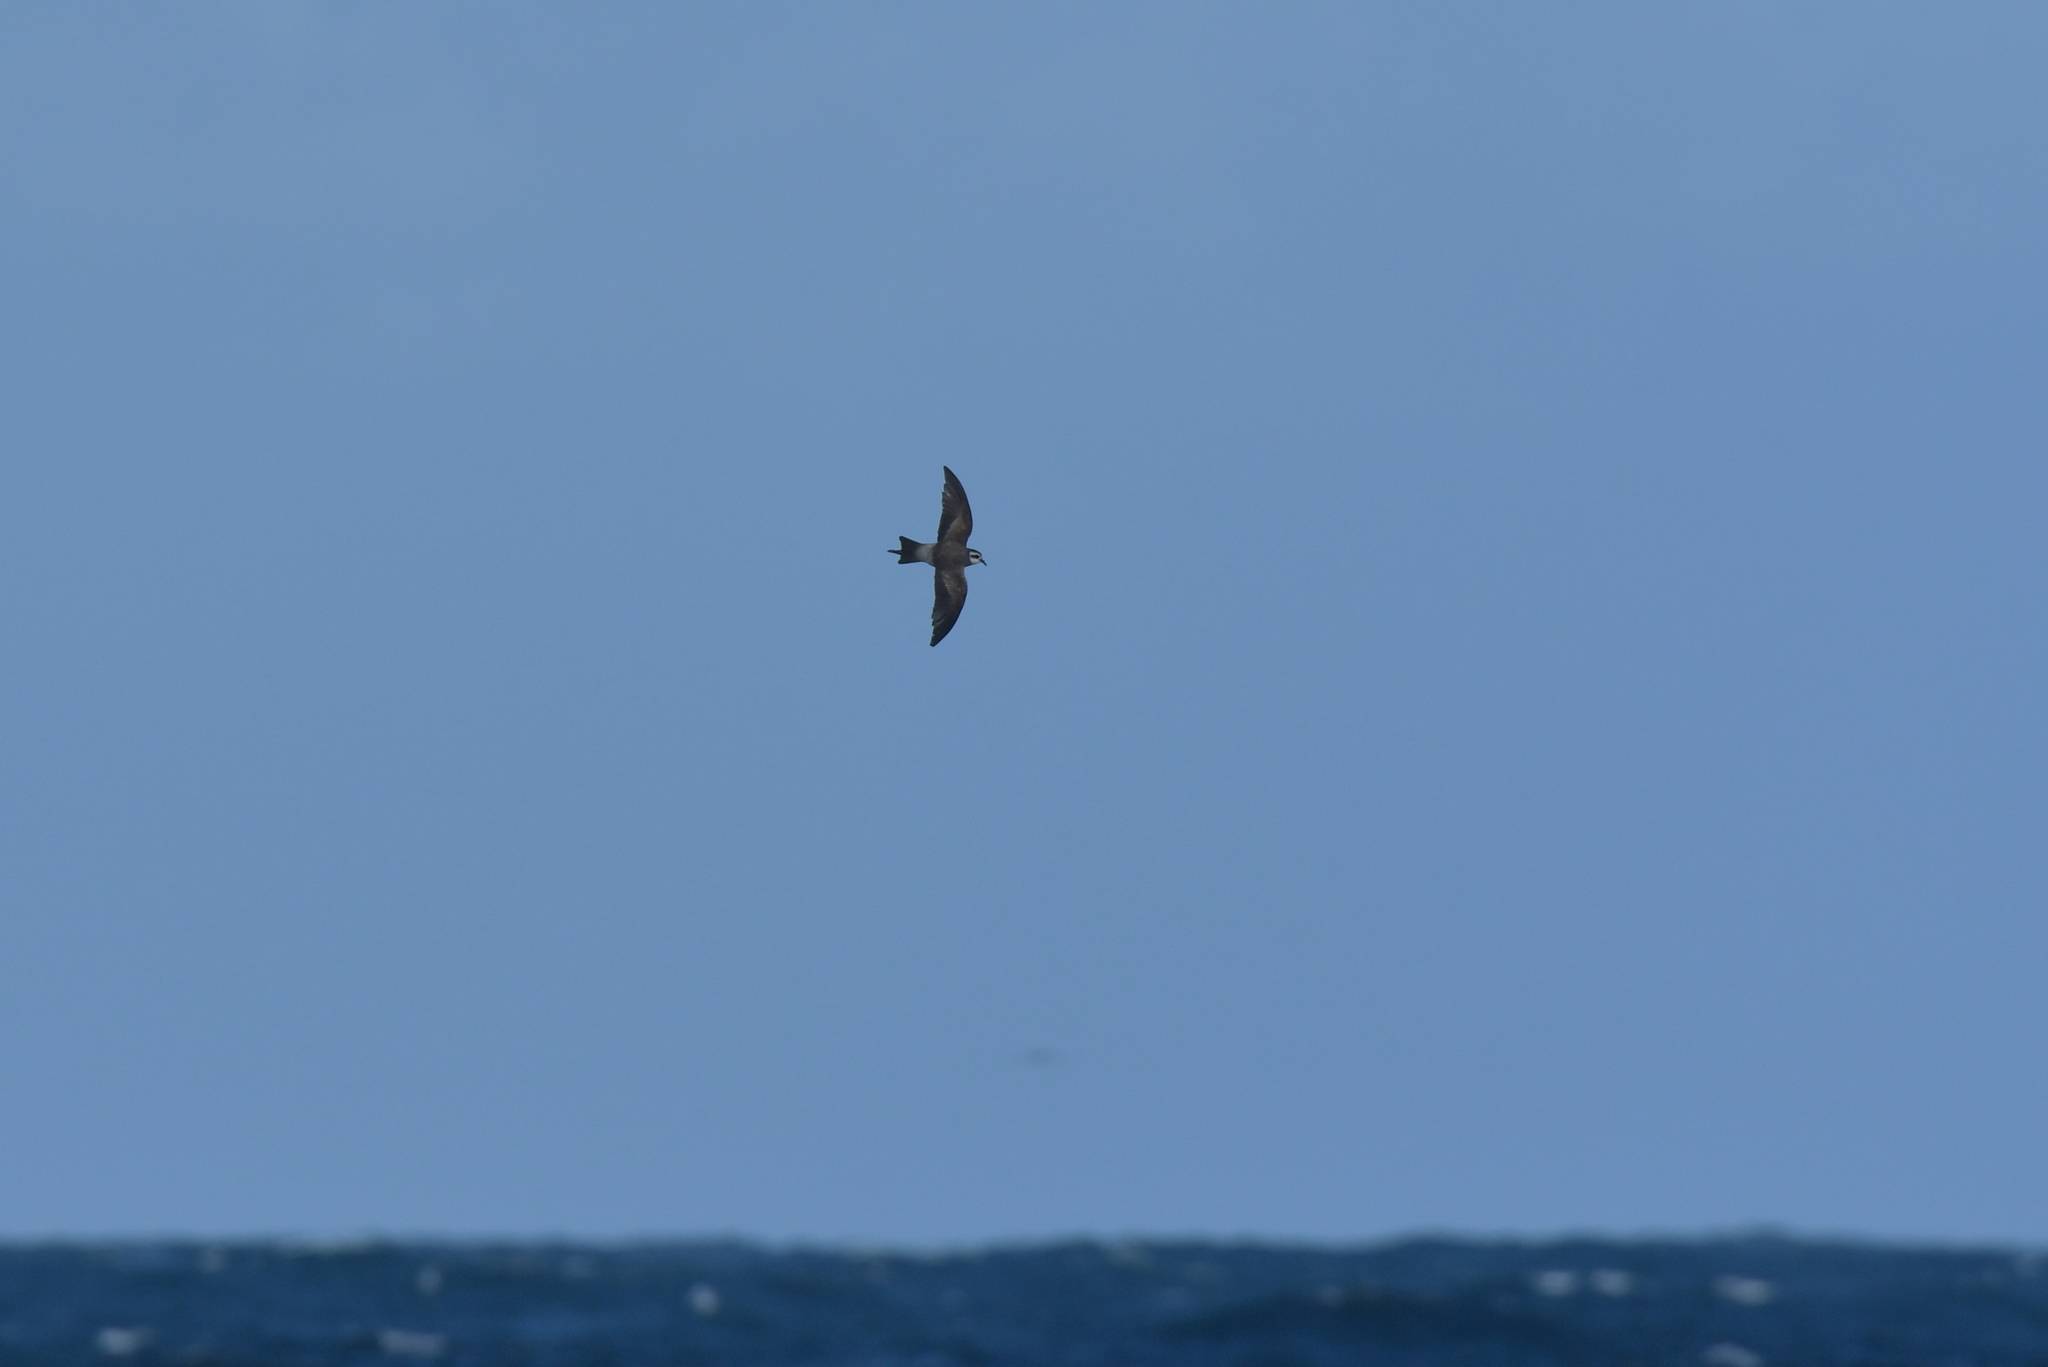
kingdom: Animalia
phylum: Chordata
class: Aves
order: Procellariiformes
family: Hydrobatidae
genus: Pelagodroma
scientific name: Pelagodroma marina
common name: White-faced storm-petrel
